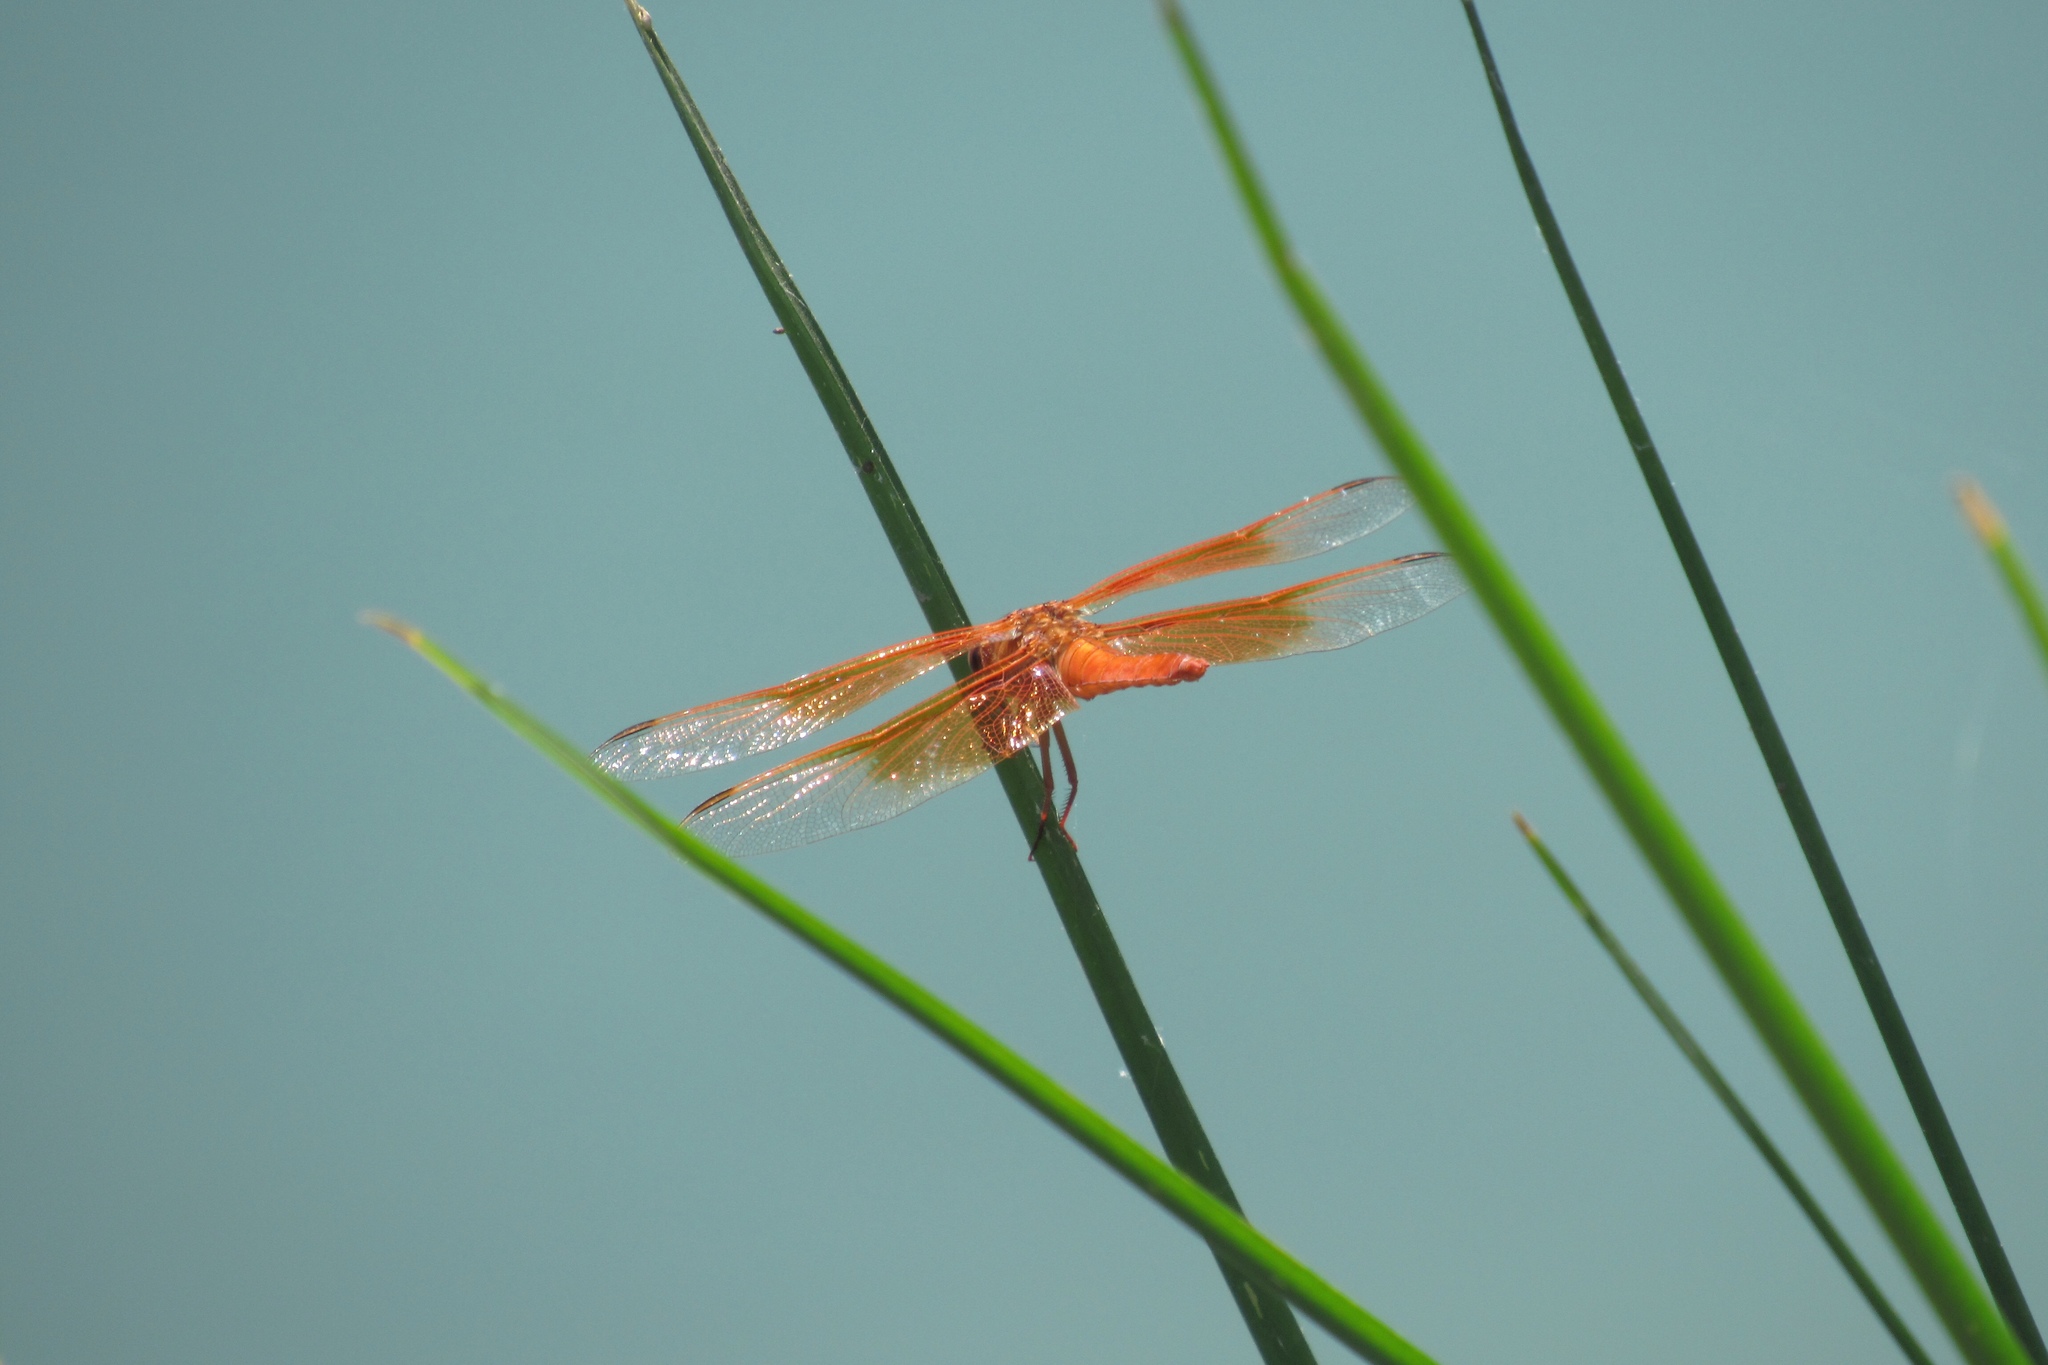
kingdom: Animalia
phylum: Arthropoda
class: Insecta
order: Odonata
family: Libellulidae
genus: Libellula
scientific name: Libellula saturata
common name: Flame skimmer
